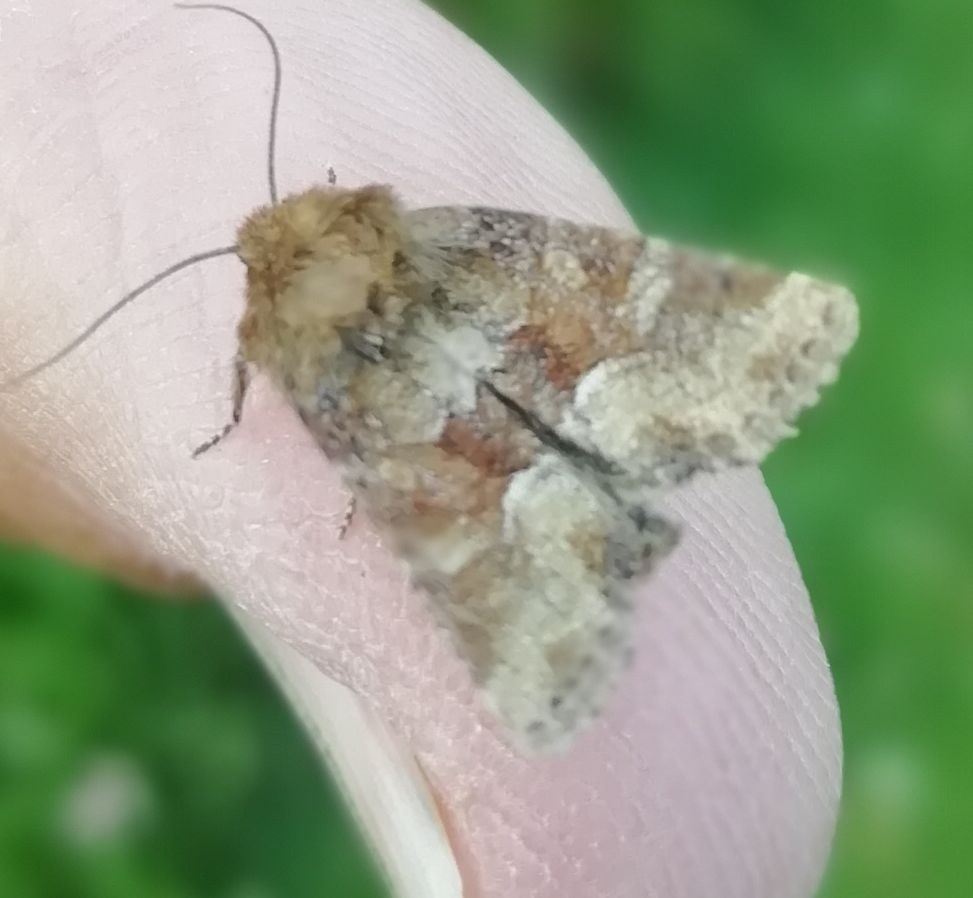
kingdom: Animalia
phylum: Arthropoda
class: Insecta
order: Lepidoptera
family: Noctuidae
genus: Oligia
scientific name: Oligia fasciuncula
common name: Middle-barred minor
